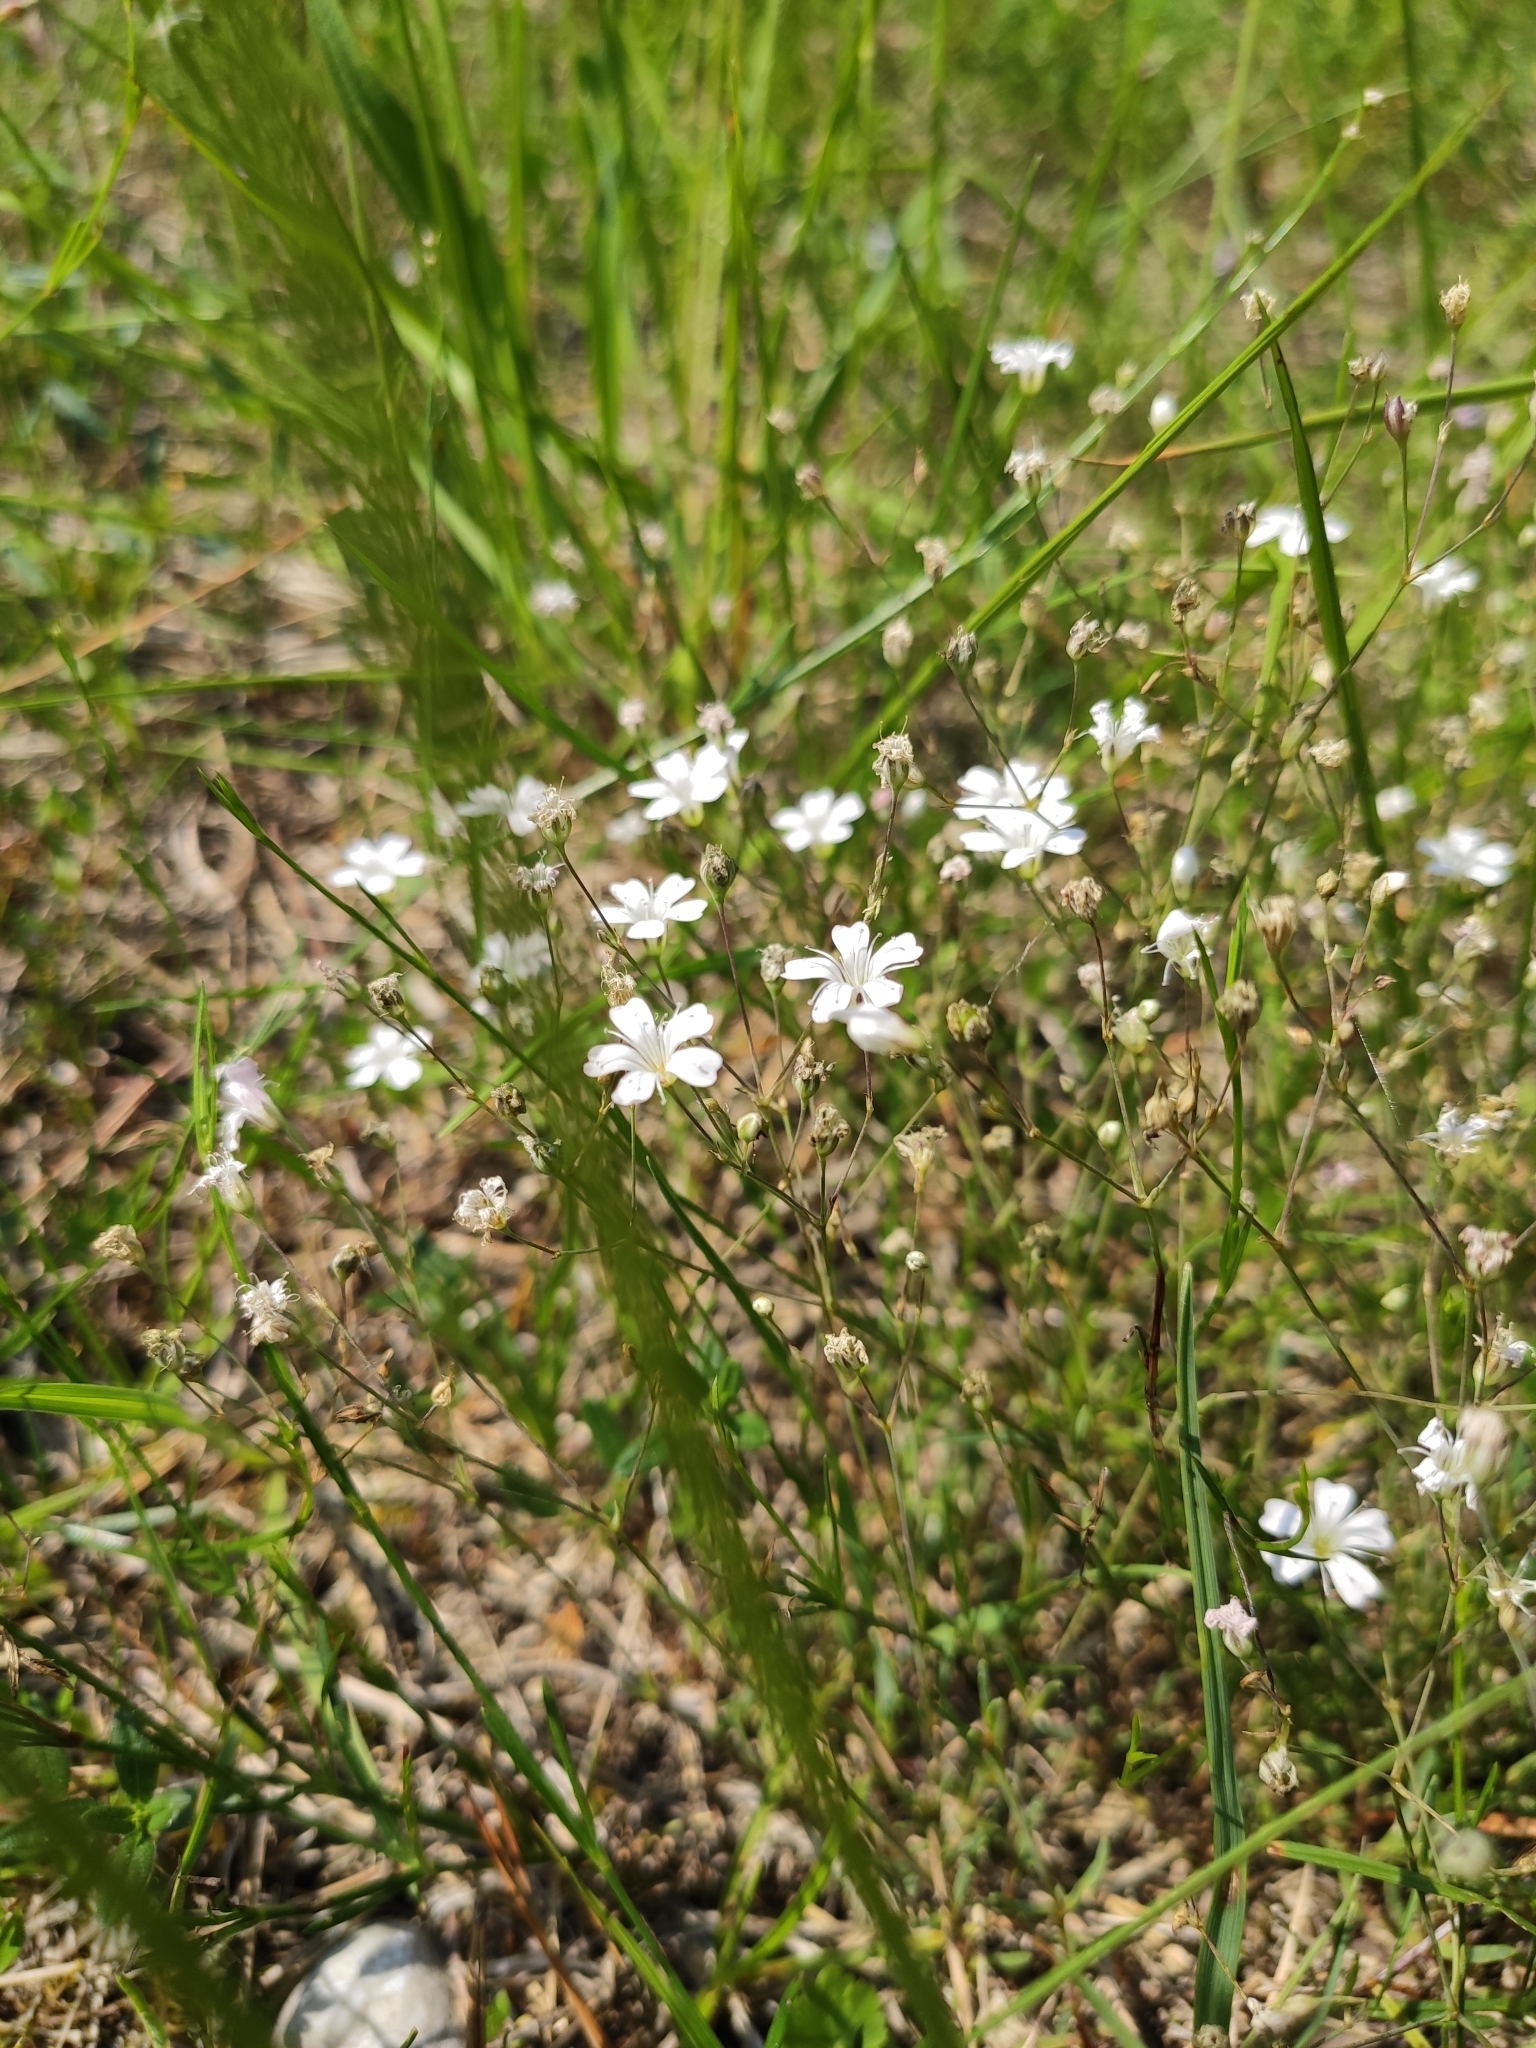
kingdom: Plantae
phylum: Tracheophyta
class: Magnoliopsida
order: Caryophyllales
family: Caryophyllaceae
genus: Petrorhagia
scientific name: Petrorhagia saxifraga
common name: Tunicflower
